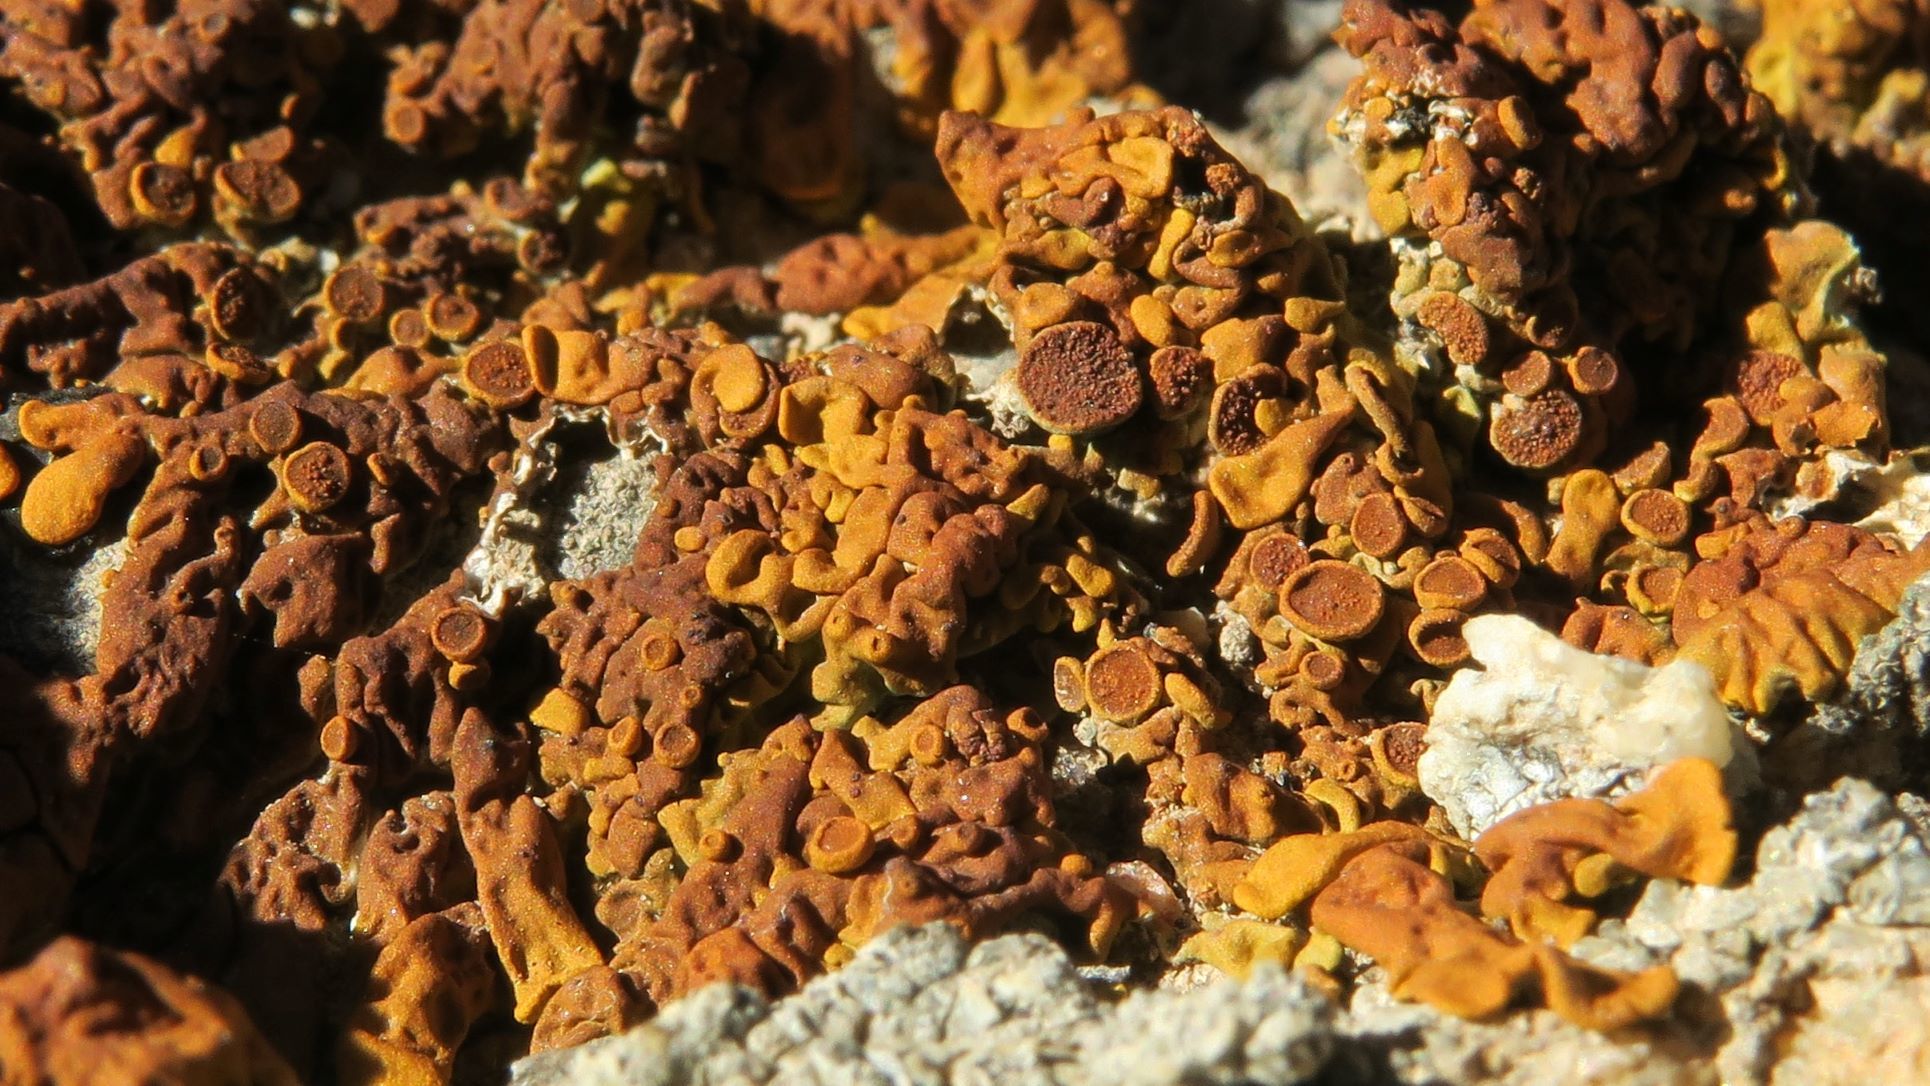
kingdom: Fungi
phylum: Ascomycota
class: Lecanoromycetes
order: Teloschistales
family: Teloschistaceae
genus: Dufourea
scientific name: Dufourea karrooensis
